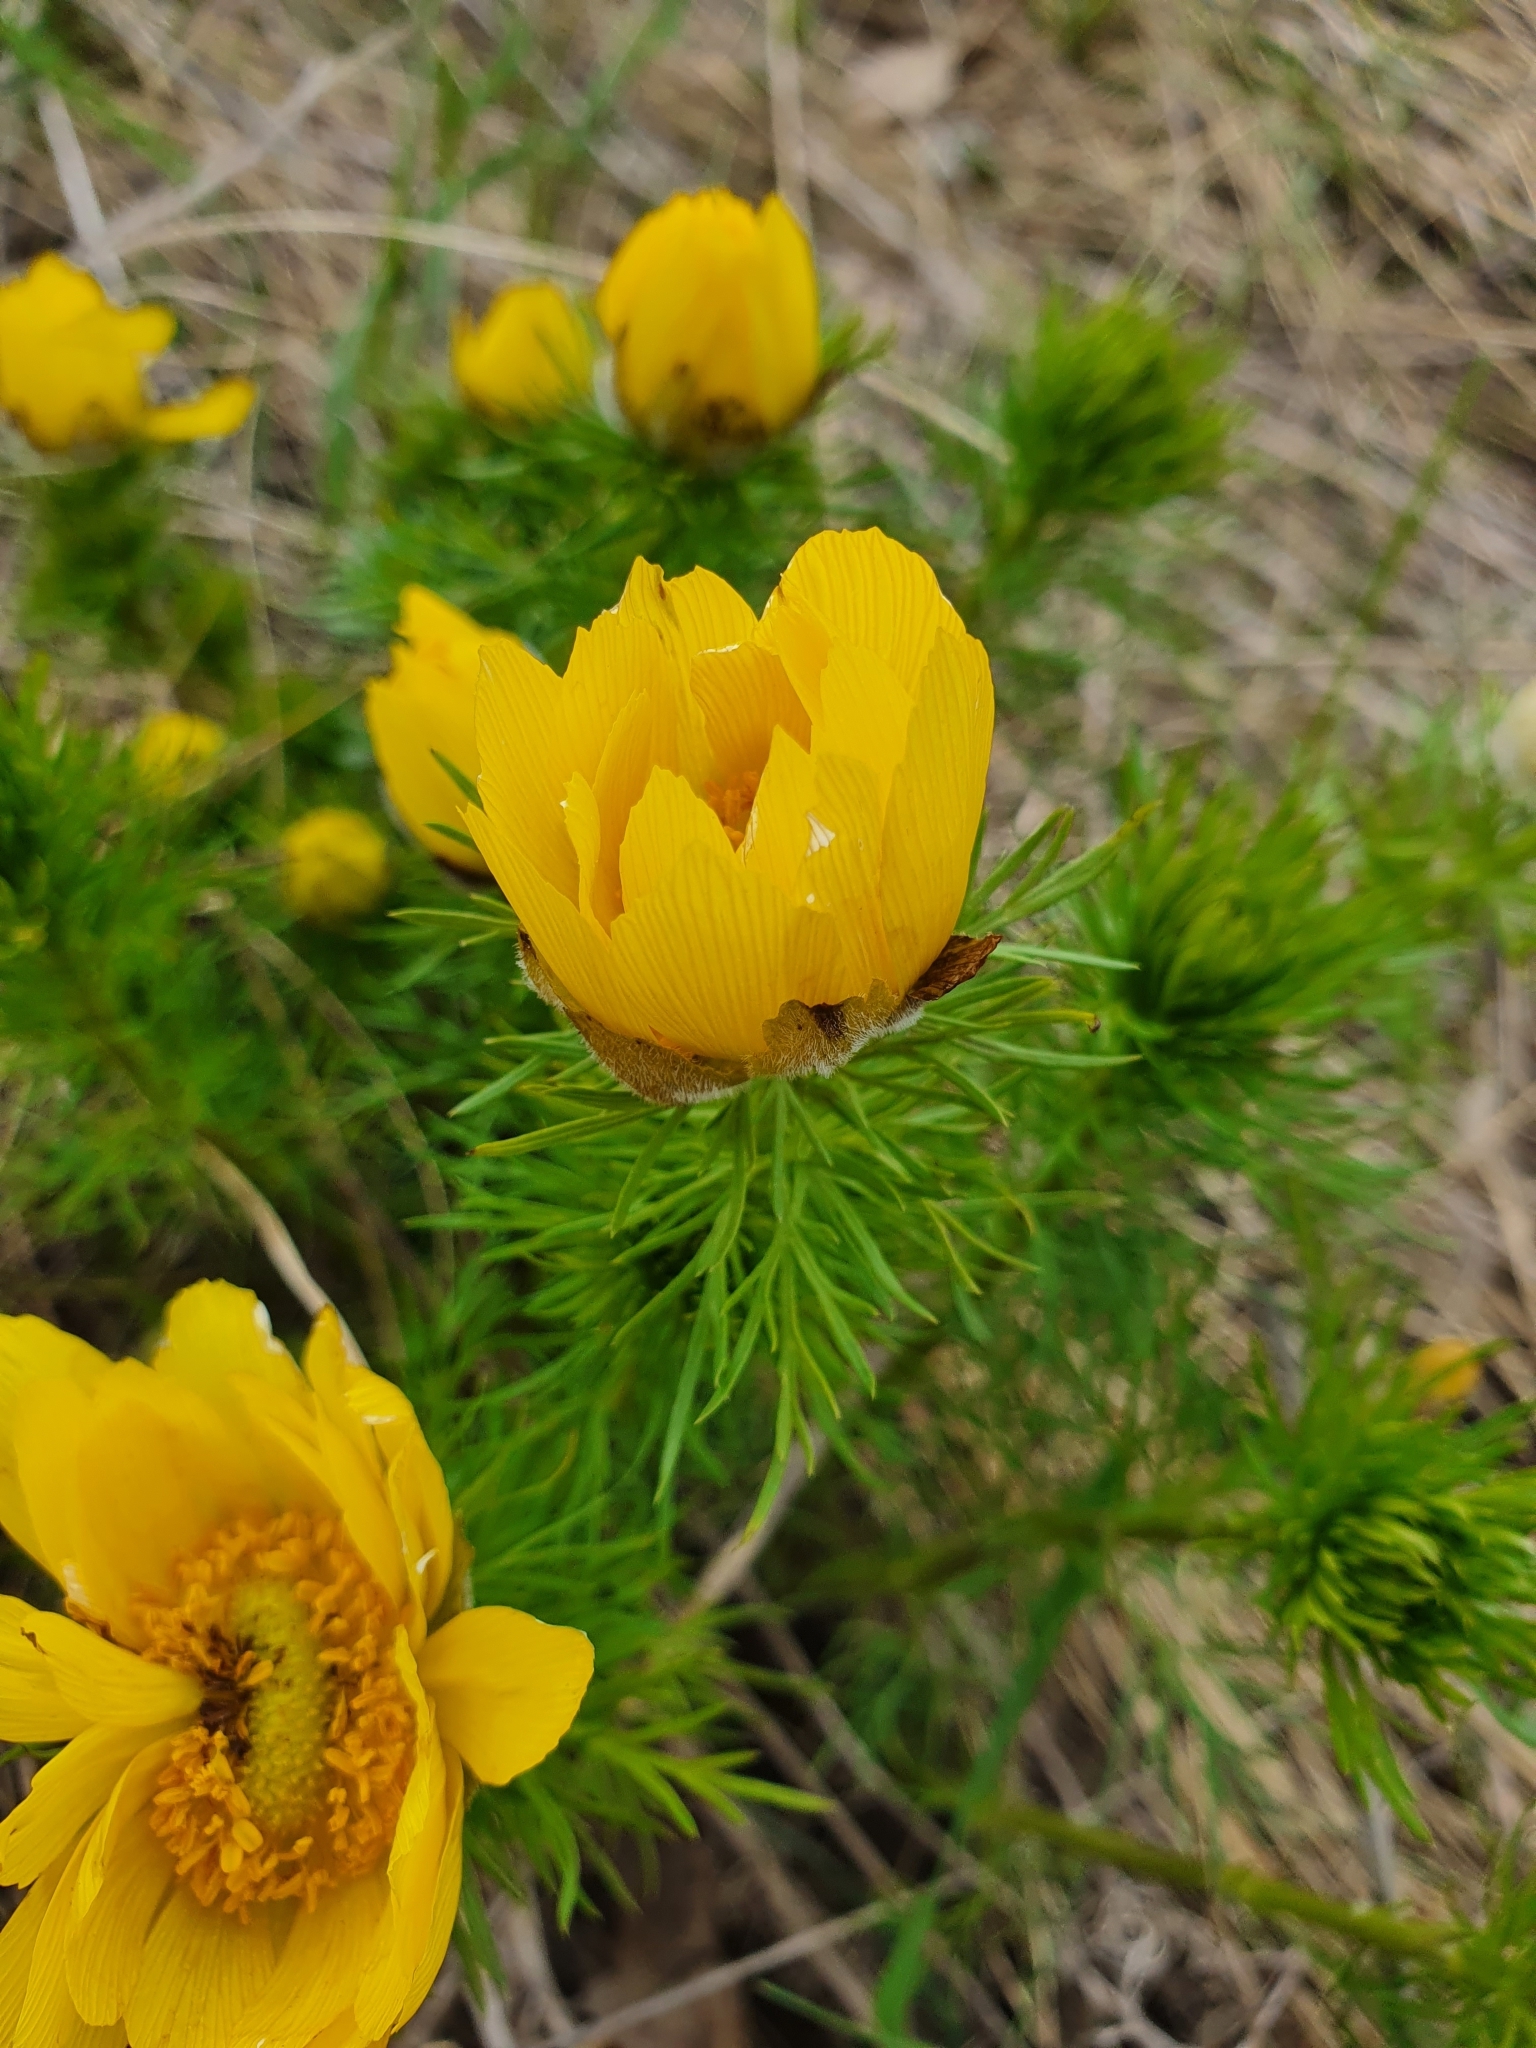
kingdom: Plantae
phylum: Tracheophyta
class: Magnoliopsida
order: Ranunculales
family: Ranunculaceae
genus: Adonis
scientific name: Adonis vernalis
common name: Yellow pheasants-eye
